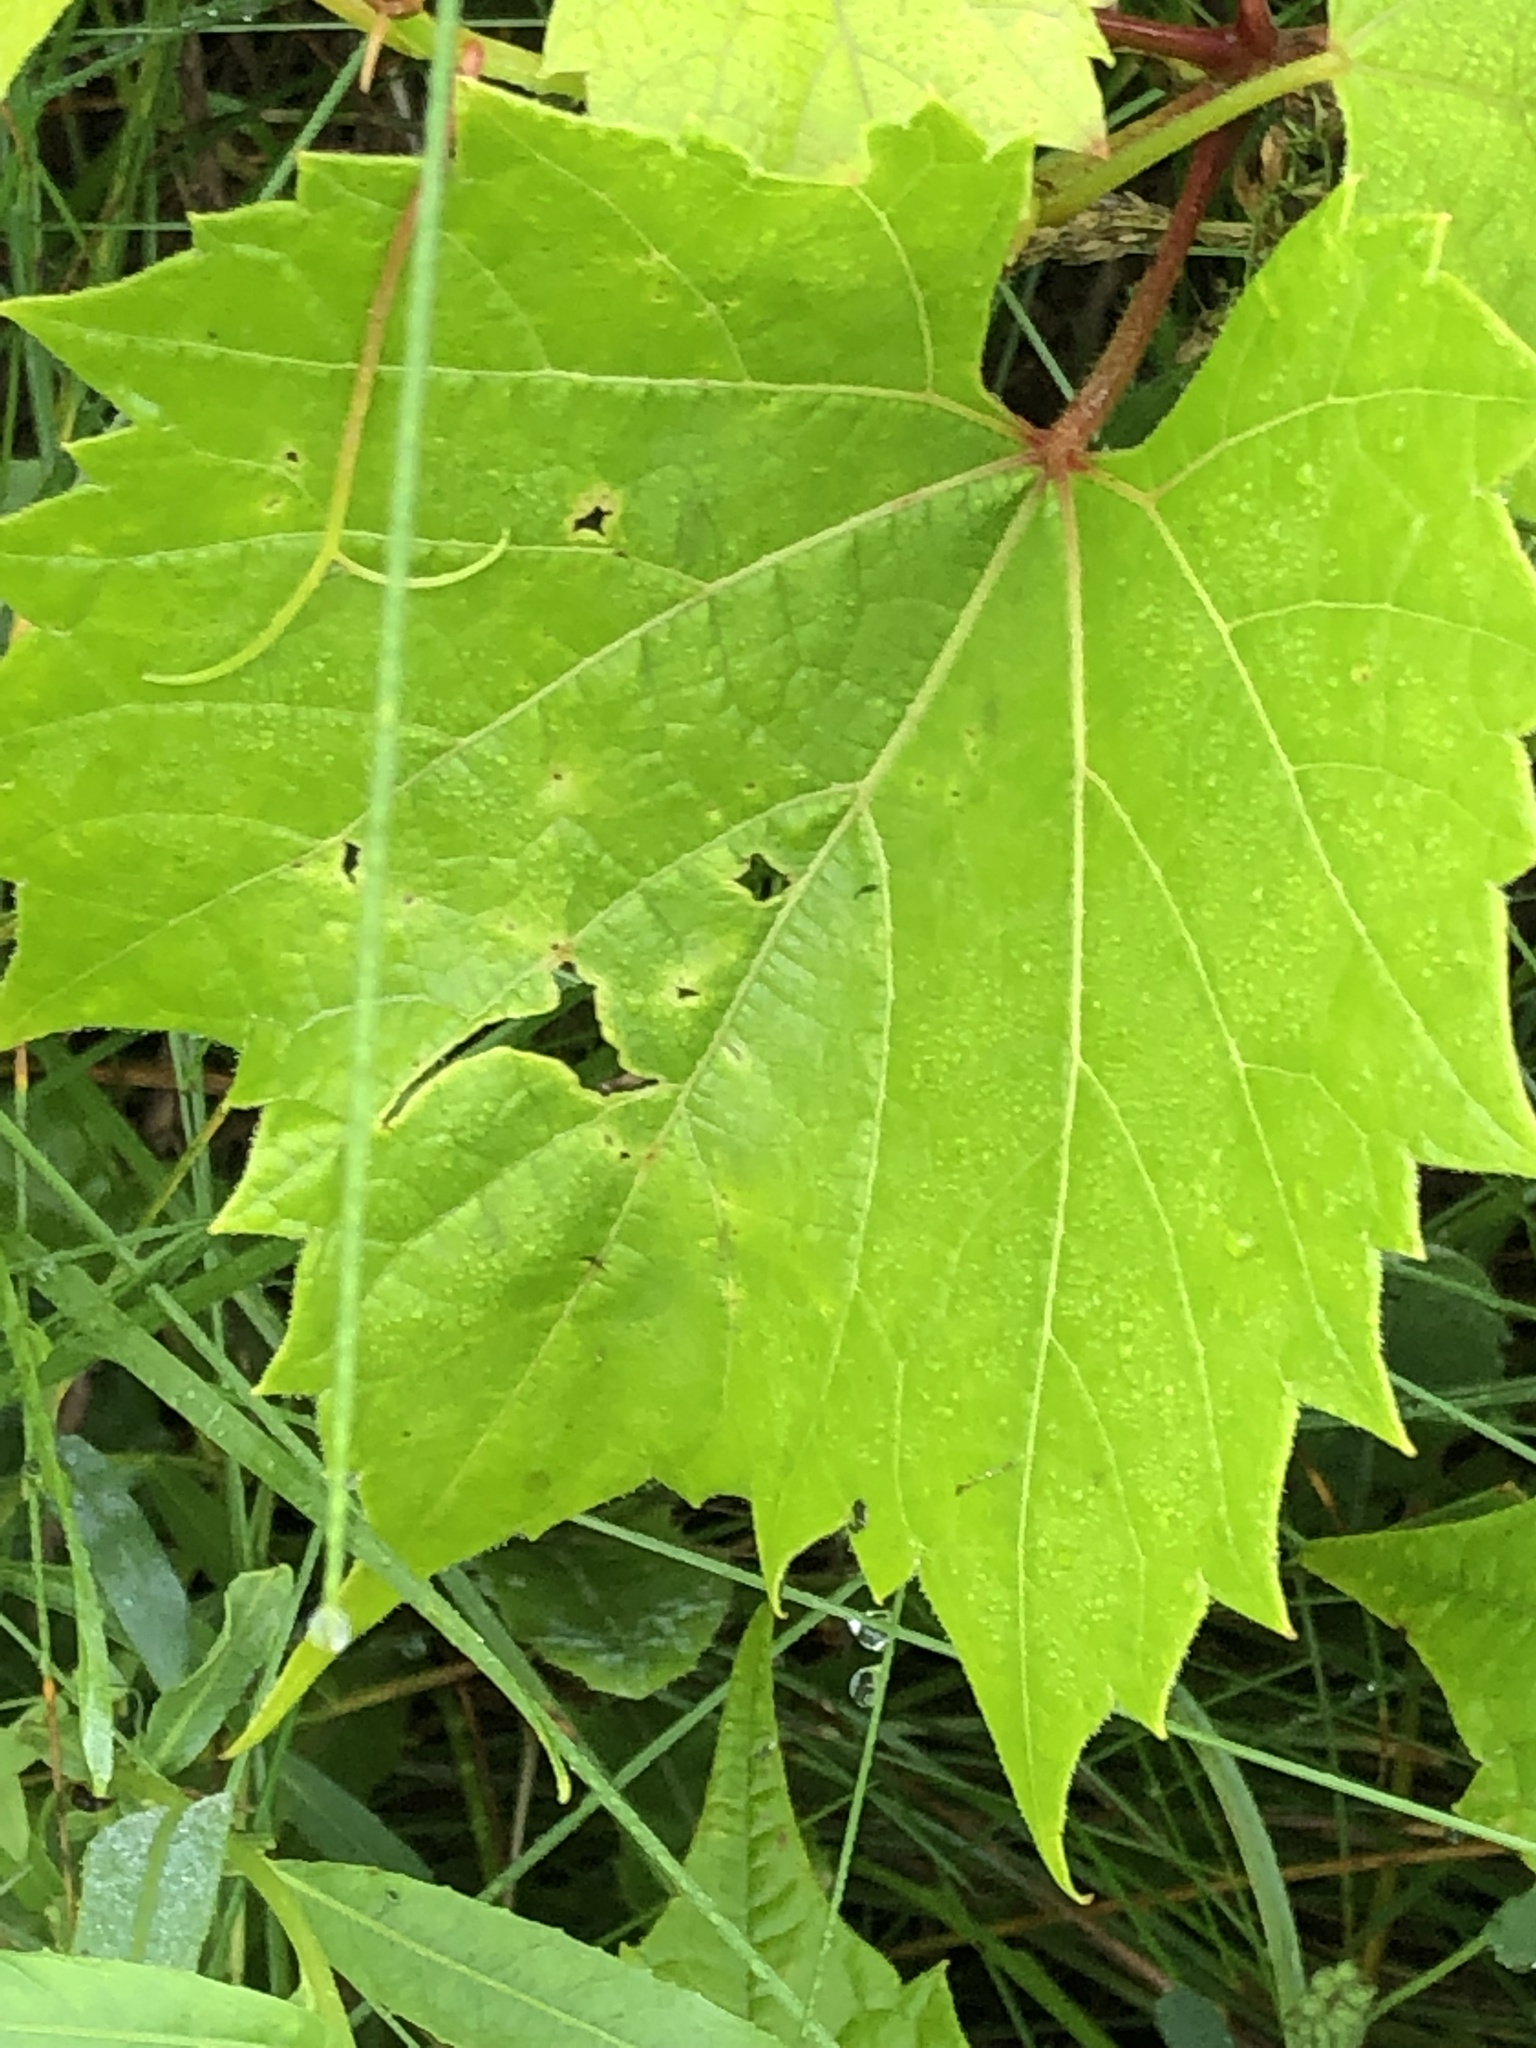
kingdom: Plantae
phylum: Tracheophyta
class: Magnoliopsida
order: Vitales
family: Vitaceae
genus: Vitis
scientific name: Vitis riparia
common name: Frost grape
